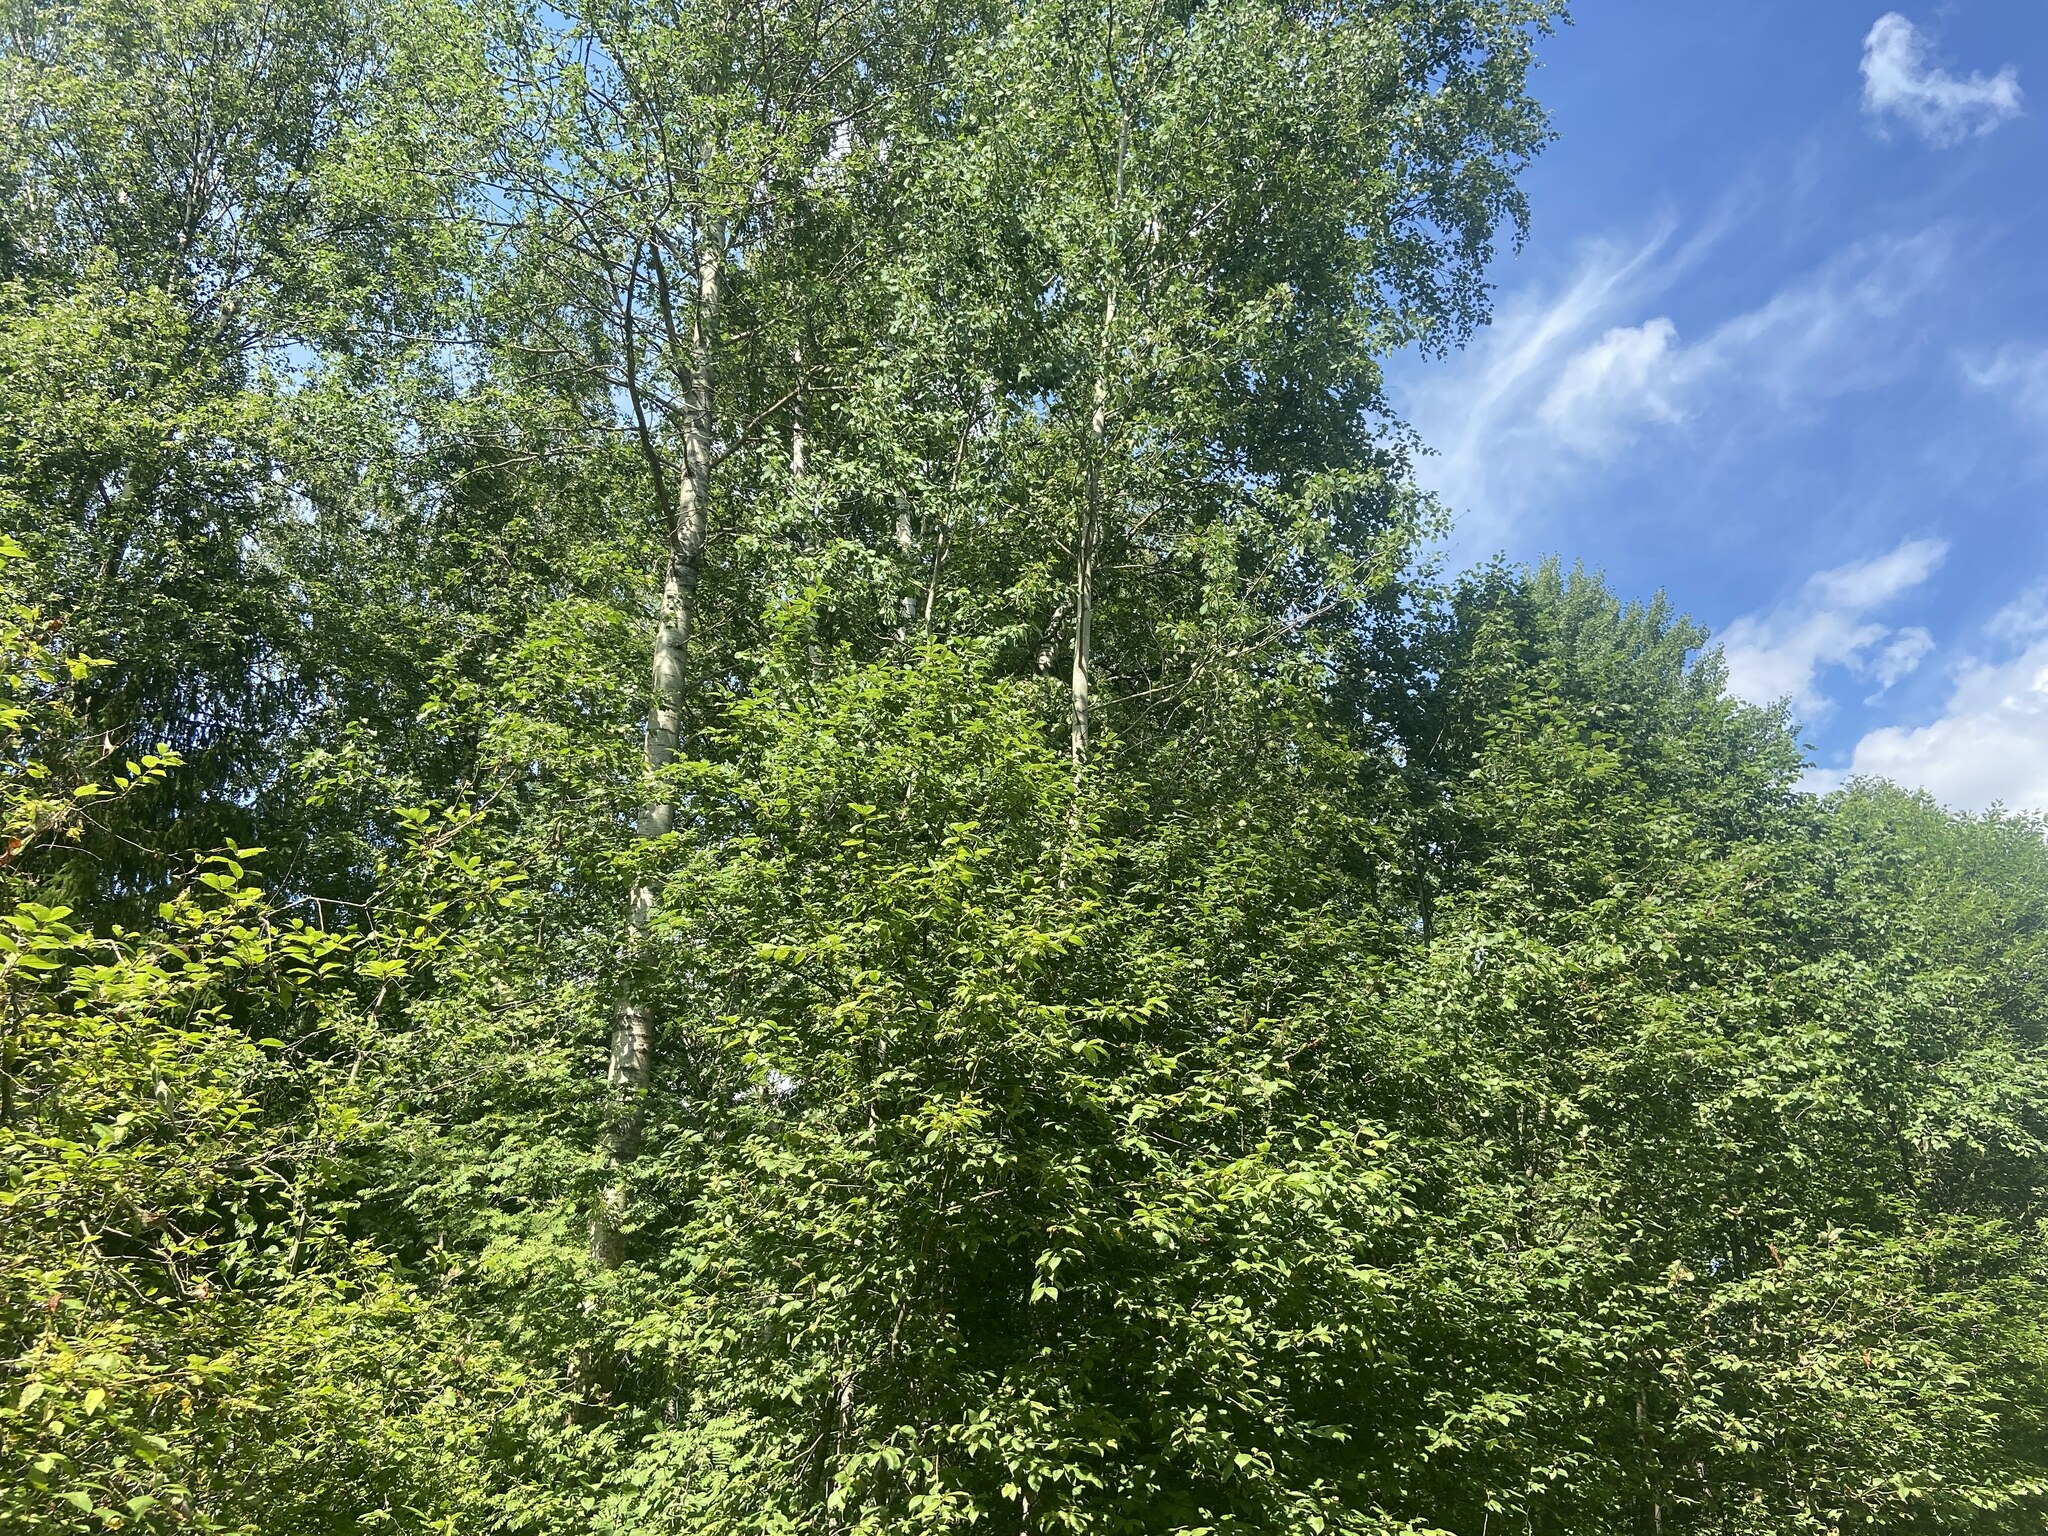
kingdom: Plantae
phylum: Tracheophyta
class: Magnoliopsida
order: Fagales
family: Betulaceae
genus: Betula
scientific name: Betula pendula
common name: Silver birch
